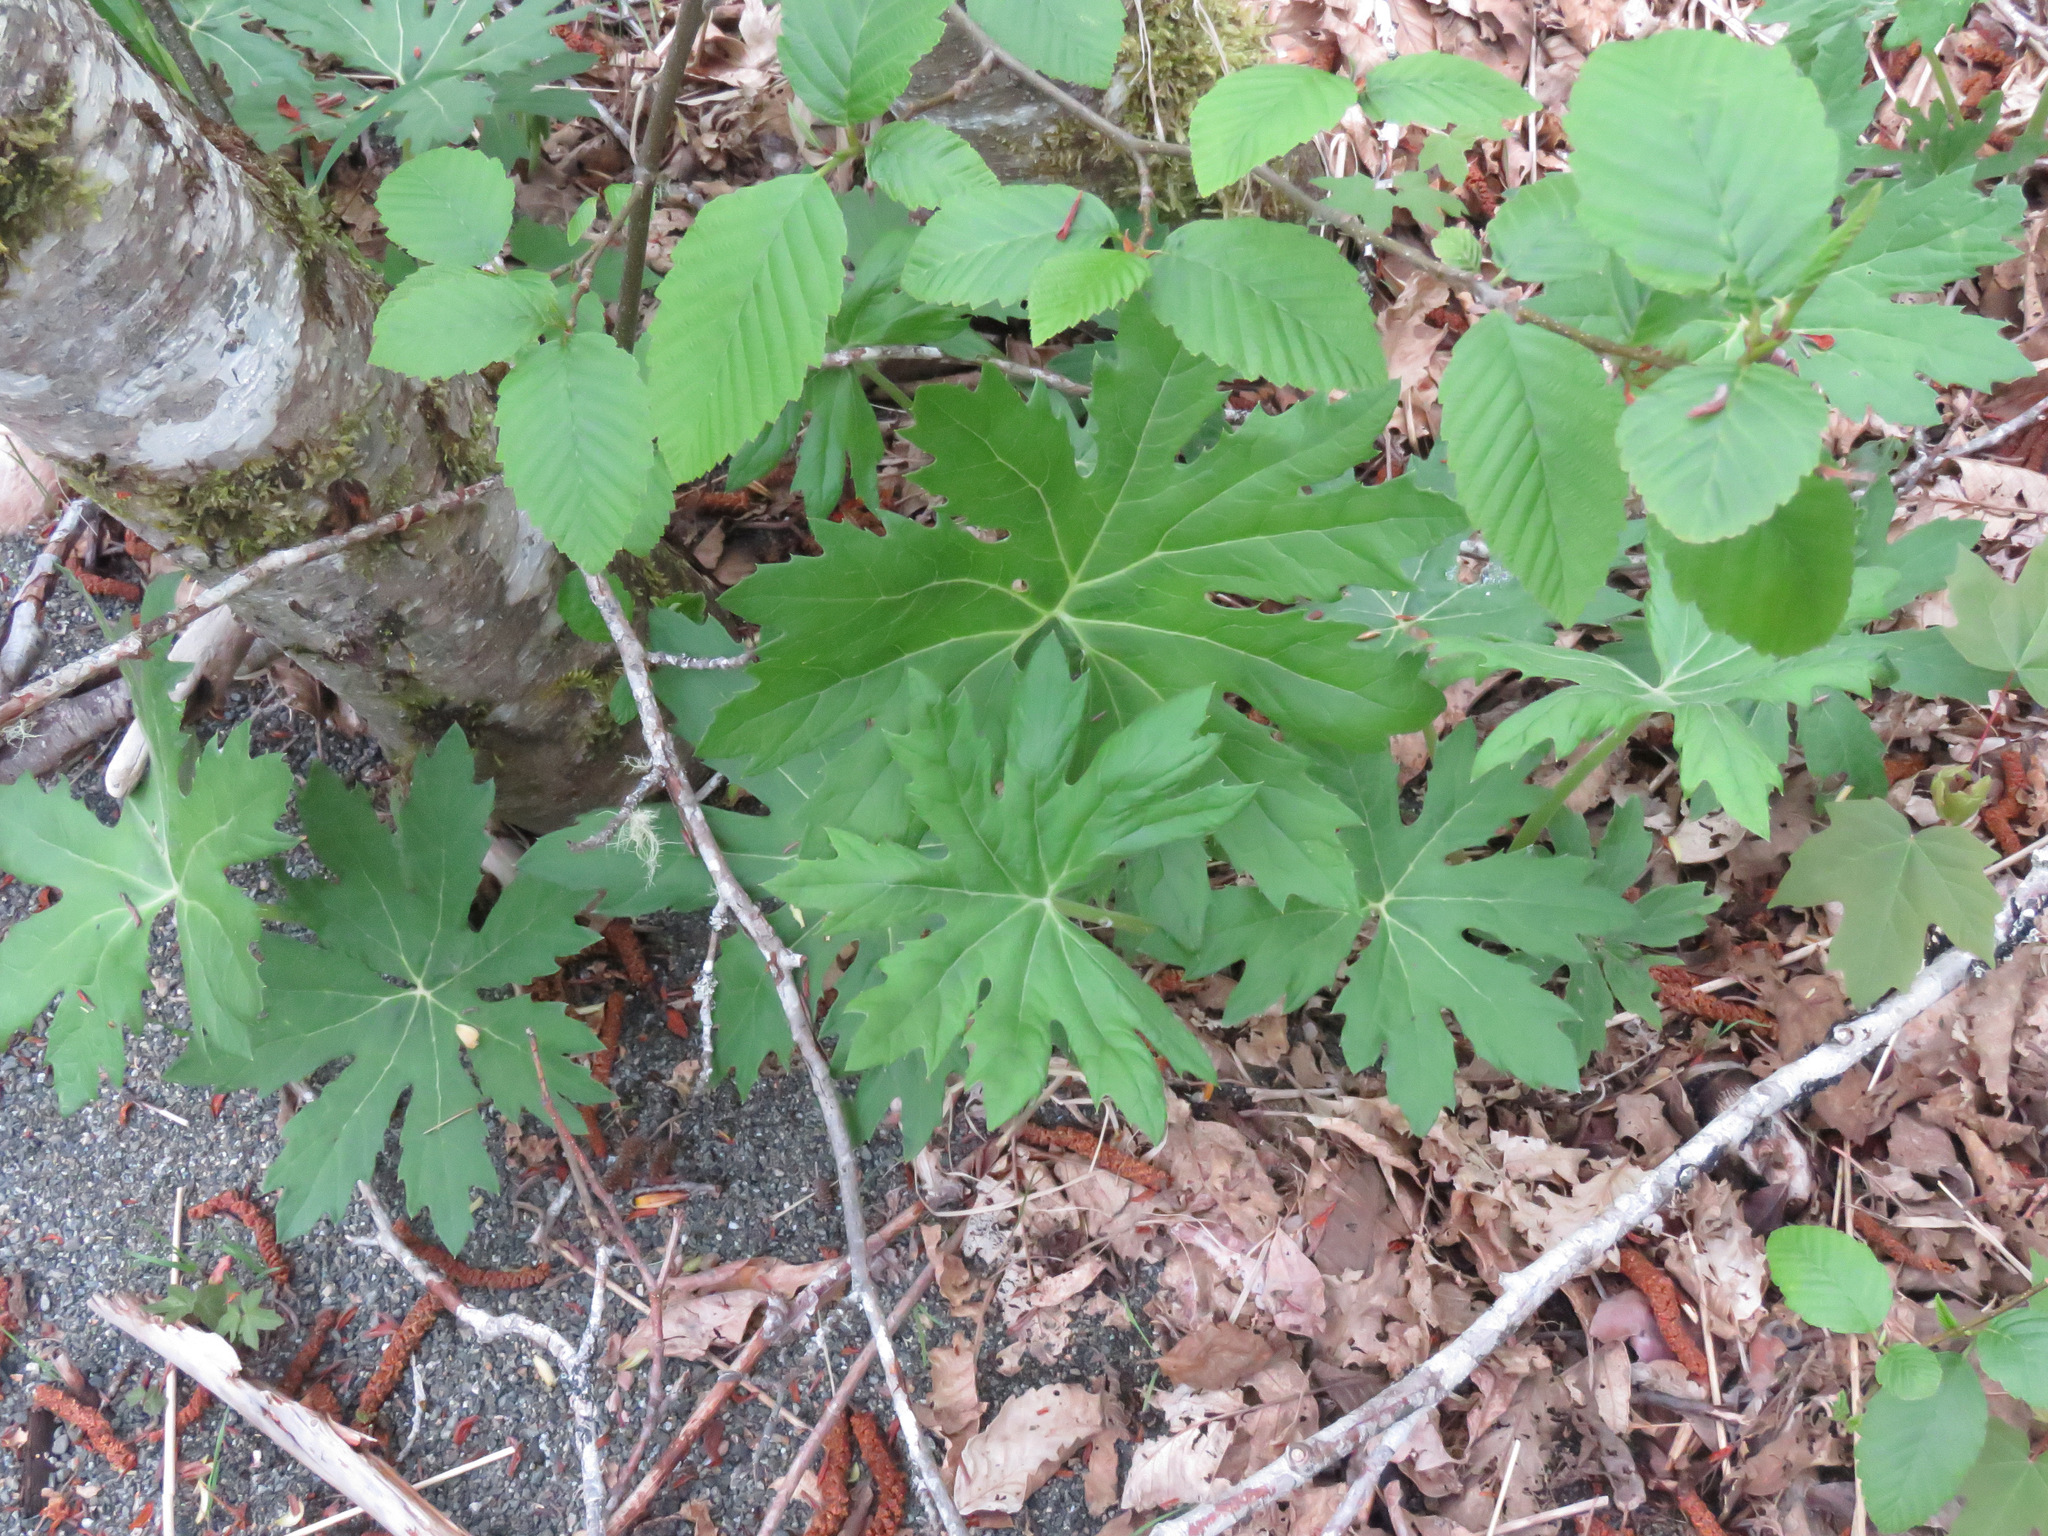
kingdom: Plantae
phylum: Tracheophyta
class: Magnoliopsida
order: Asterales
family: Asteraceae
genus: Petasites
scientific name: Petasites frigidus
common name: Arctic butterbur
